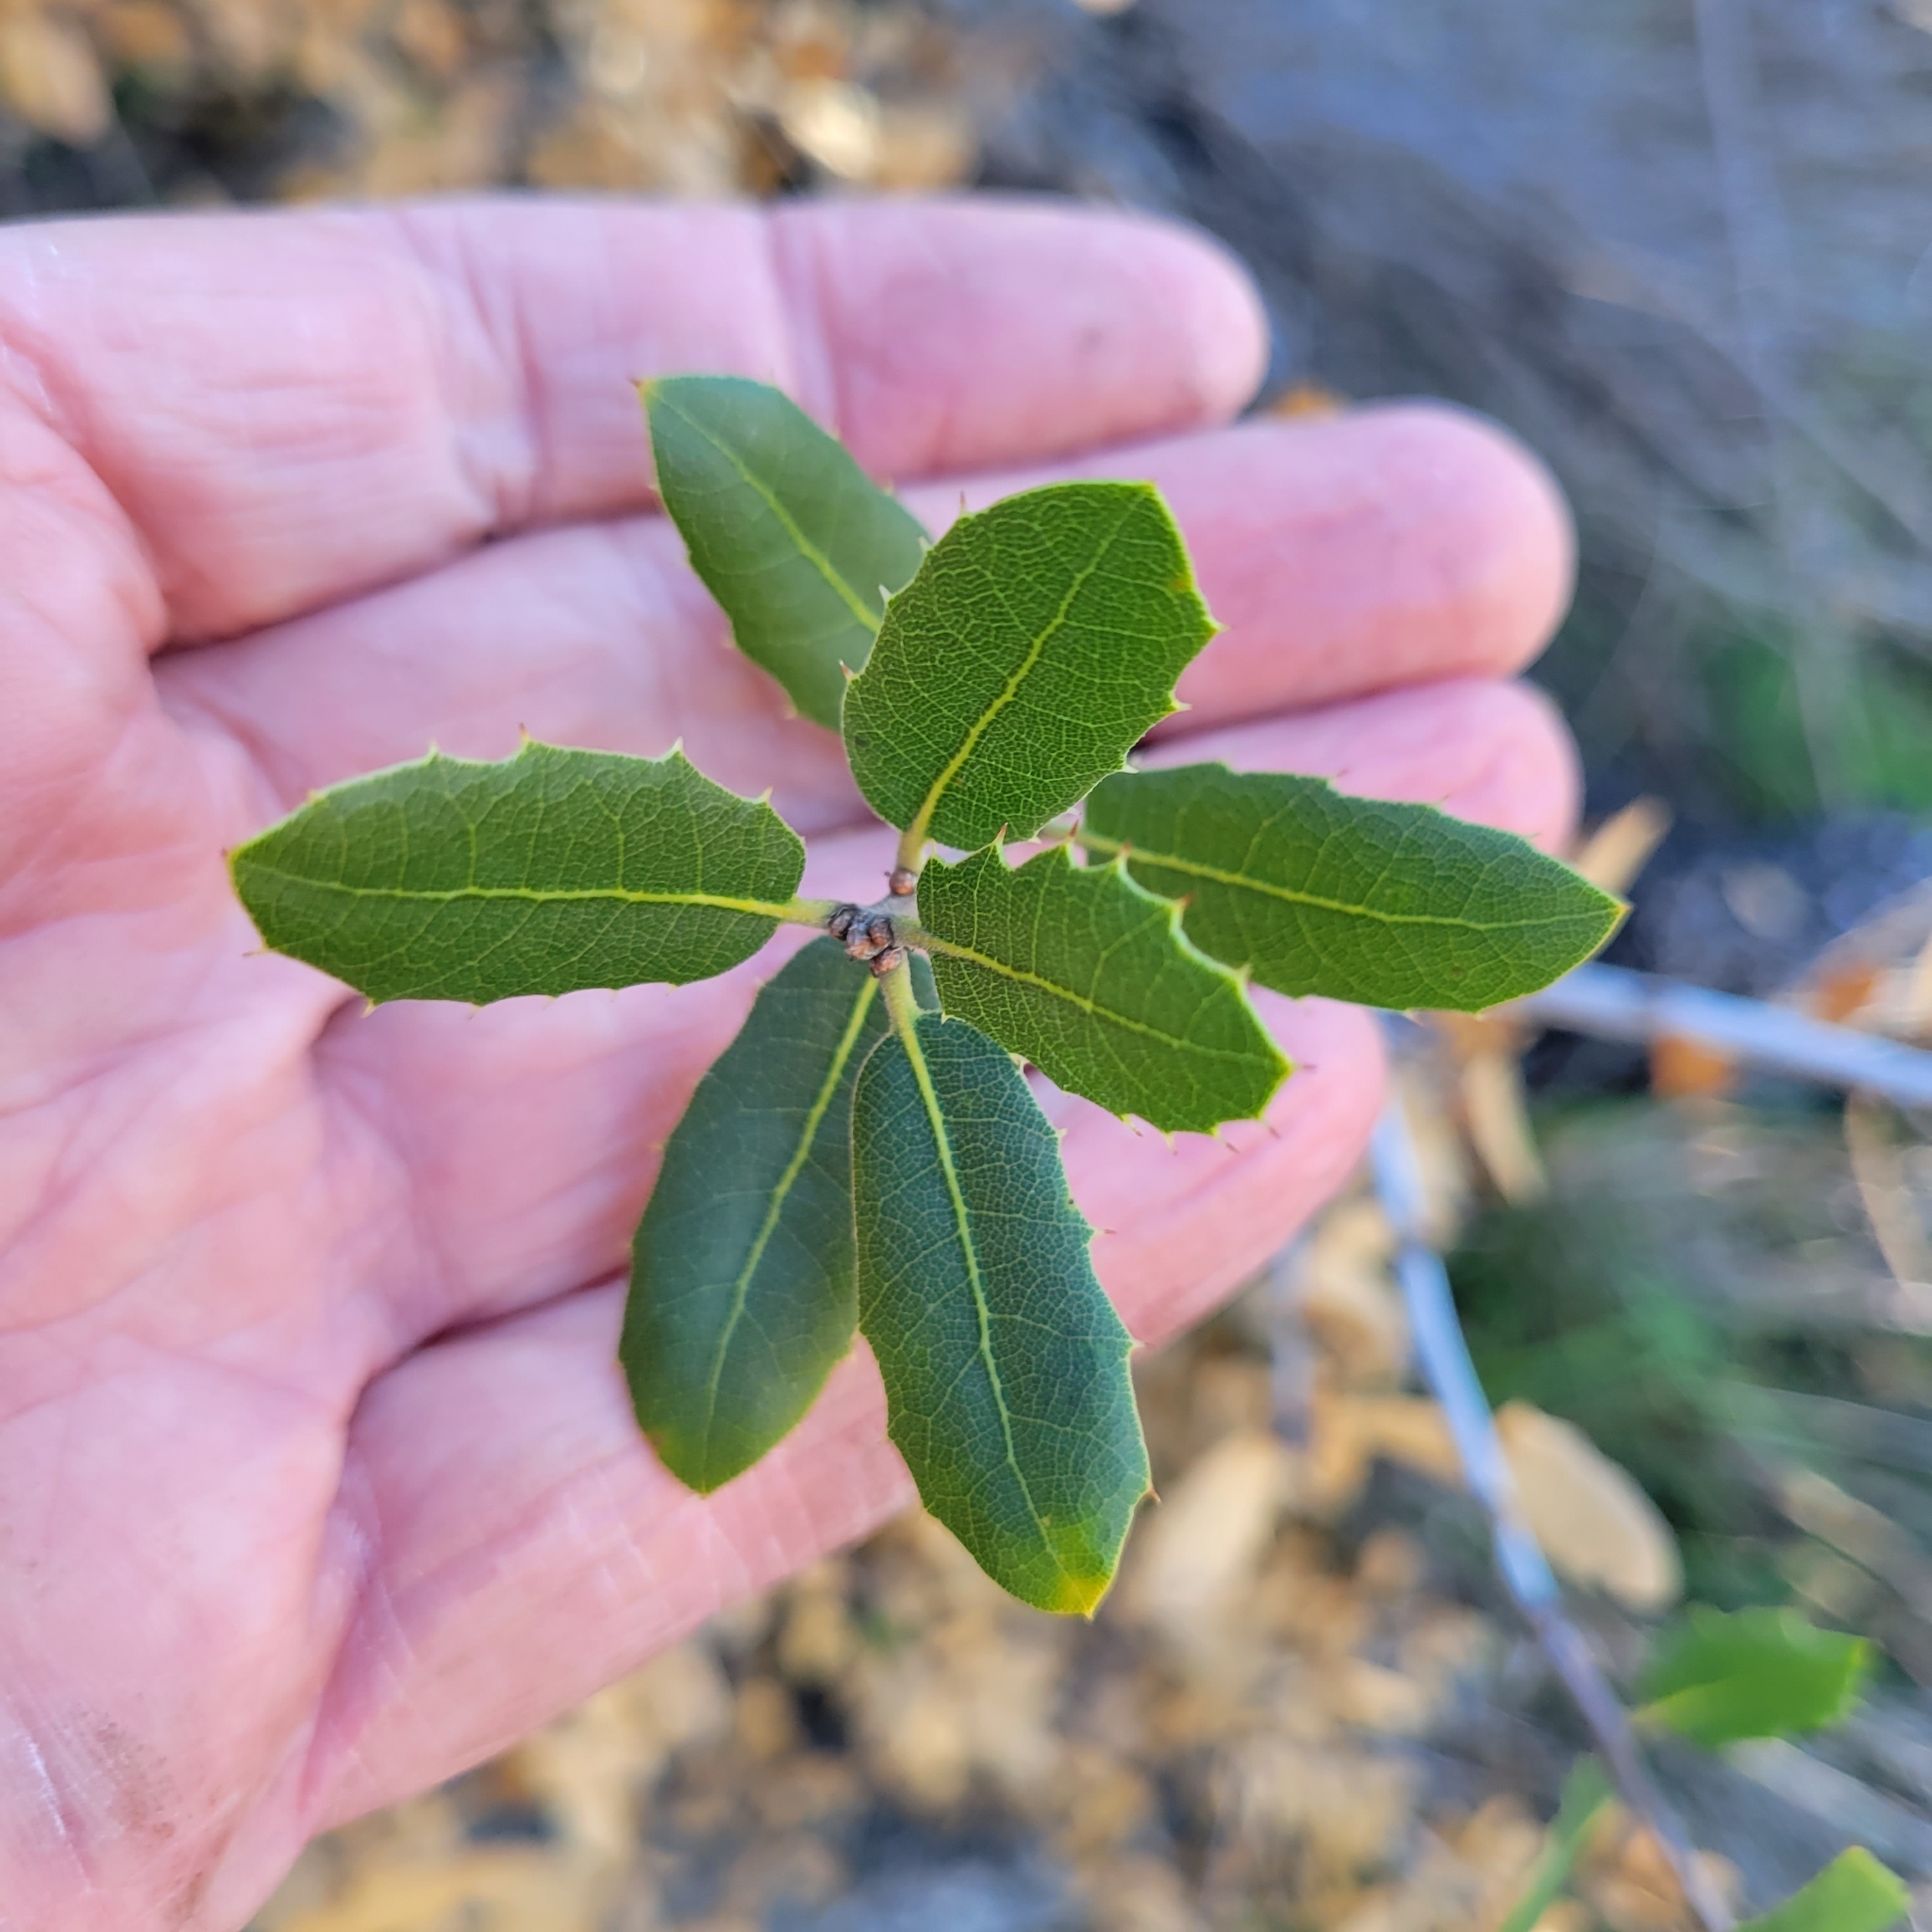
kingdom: Plantae
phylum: Tracheophyta
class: Magnoliopsida
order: Fagales
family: Fagaceae
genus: Quercus
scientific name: Quercus wislizeni
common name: Interior live oak
